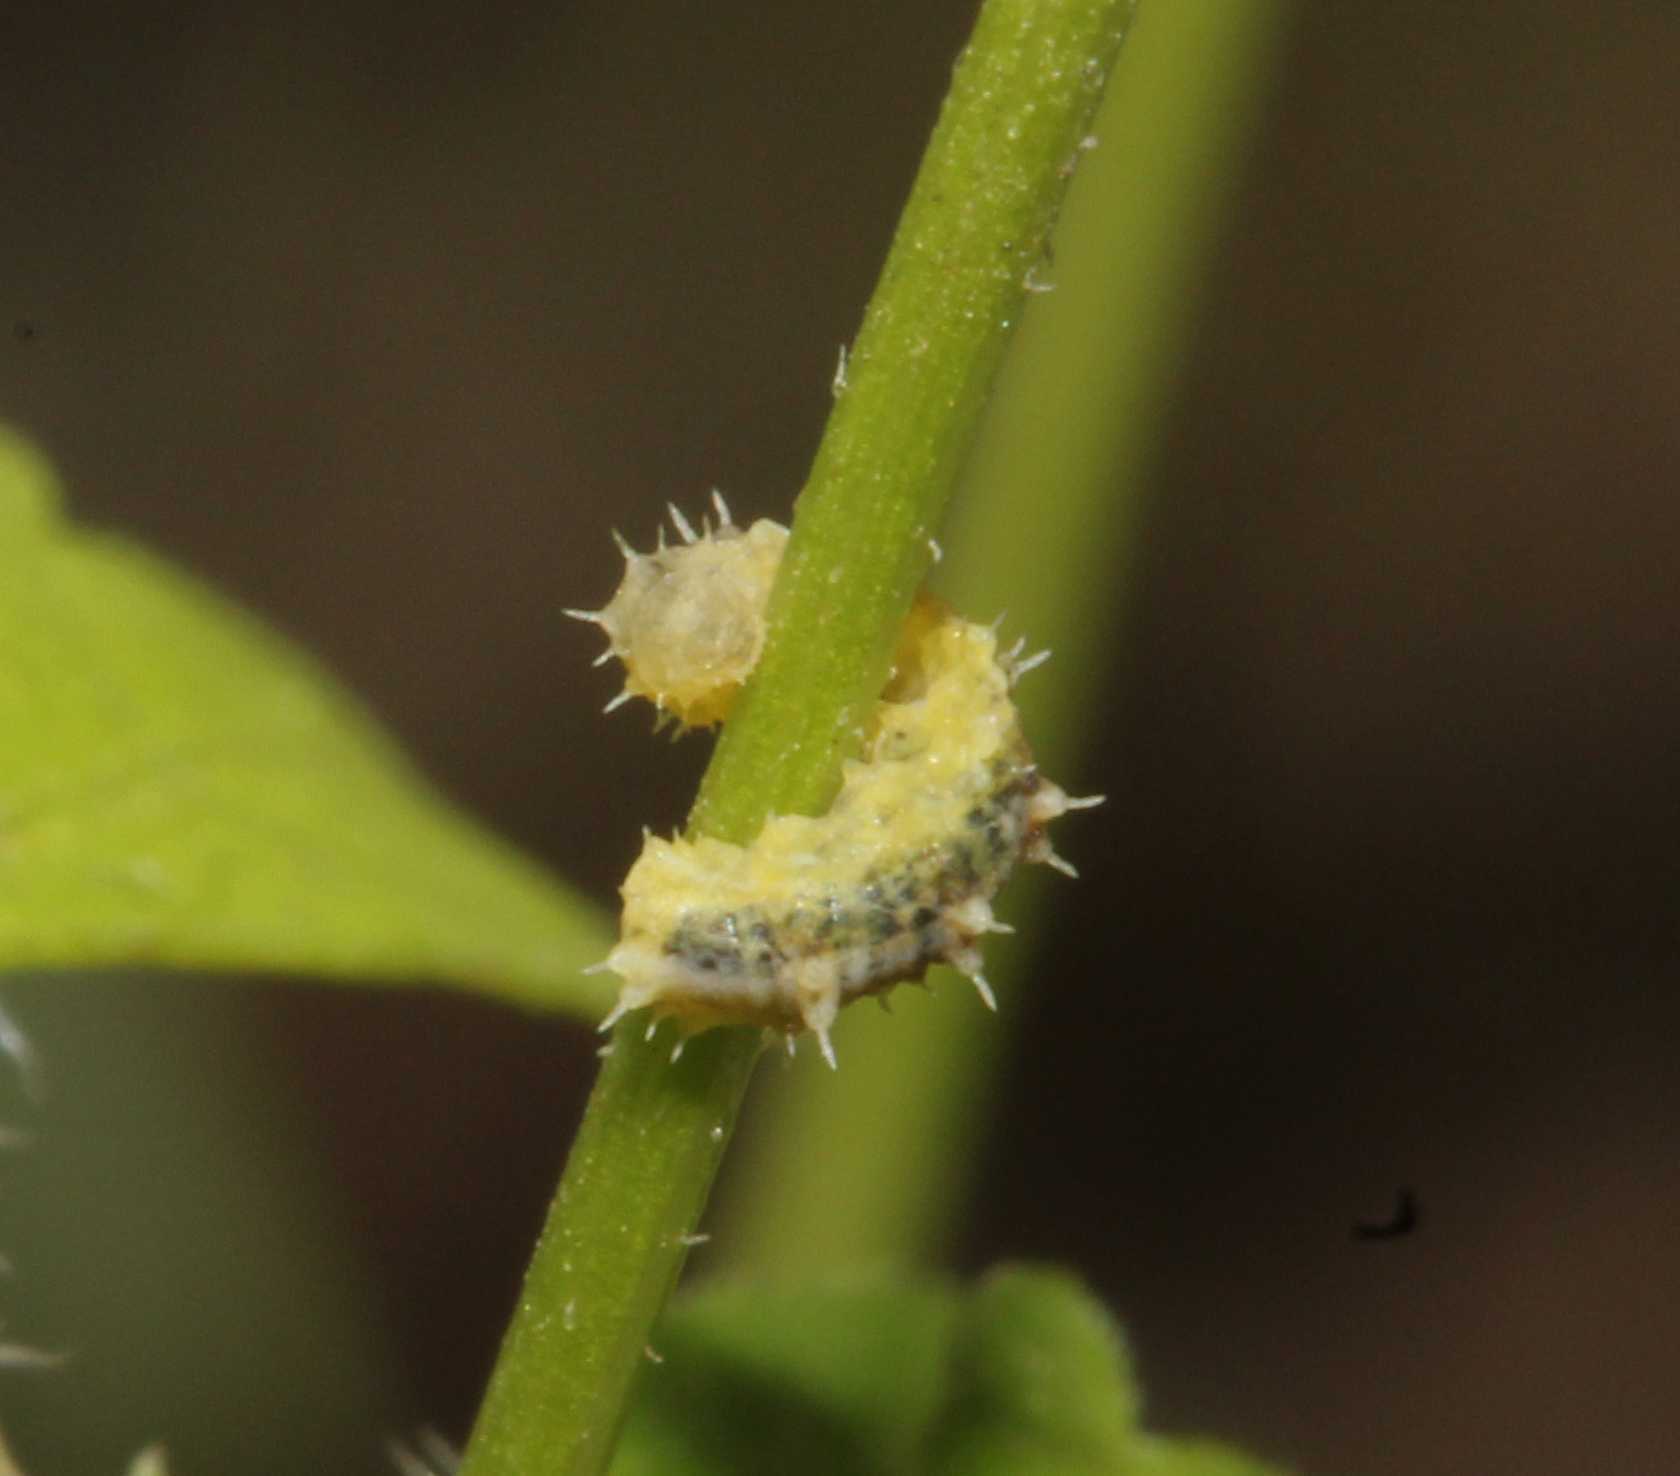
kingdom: Animalia
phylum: Arthropoda
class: Insecta
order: Diptera
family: Syrphidae
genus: Dioprosopa
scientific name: Dioprosopa clavatus
